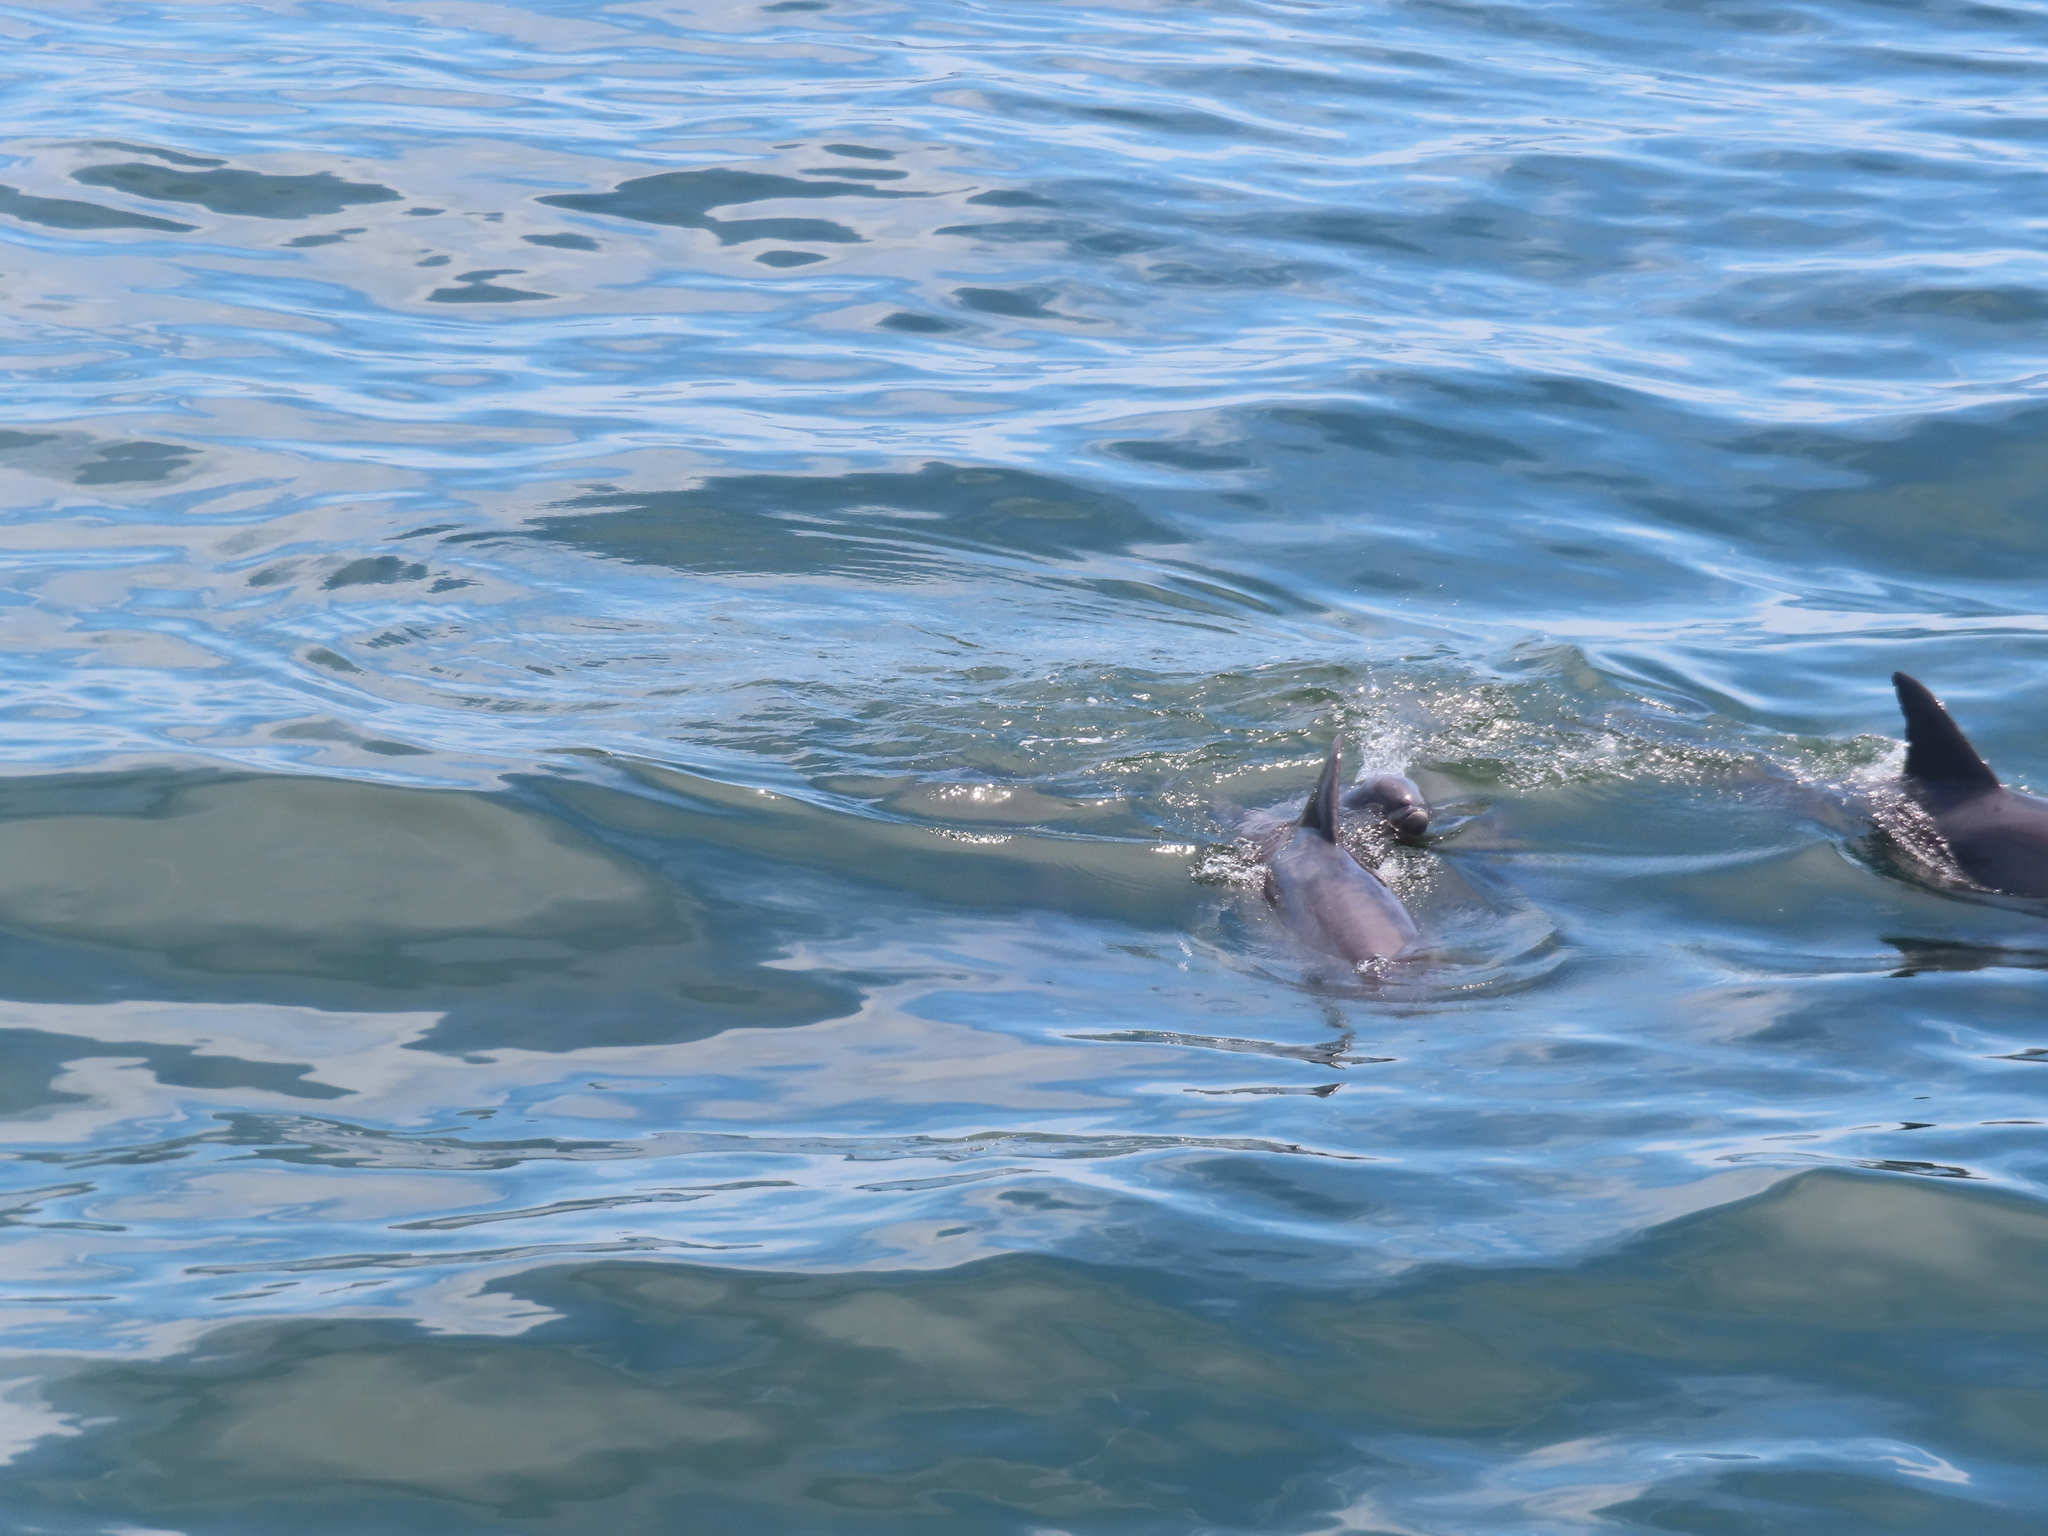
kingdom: Animalia
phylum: Chordata
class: Mammalia
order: Cetacea
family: Delphinidae
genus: Tursiops
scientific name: Tursiops truncatus
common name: Bottlenose dolphin
